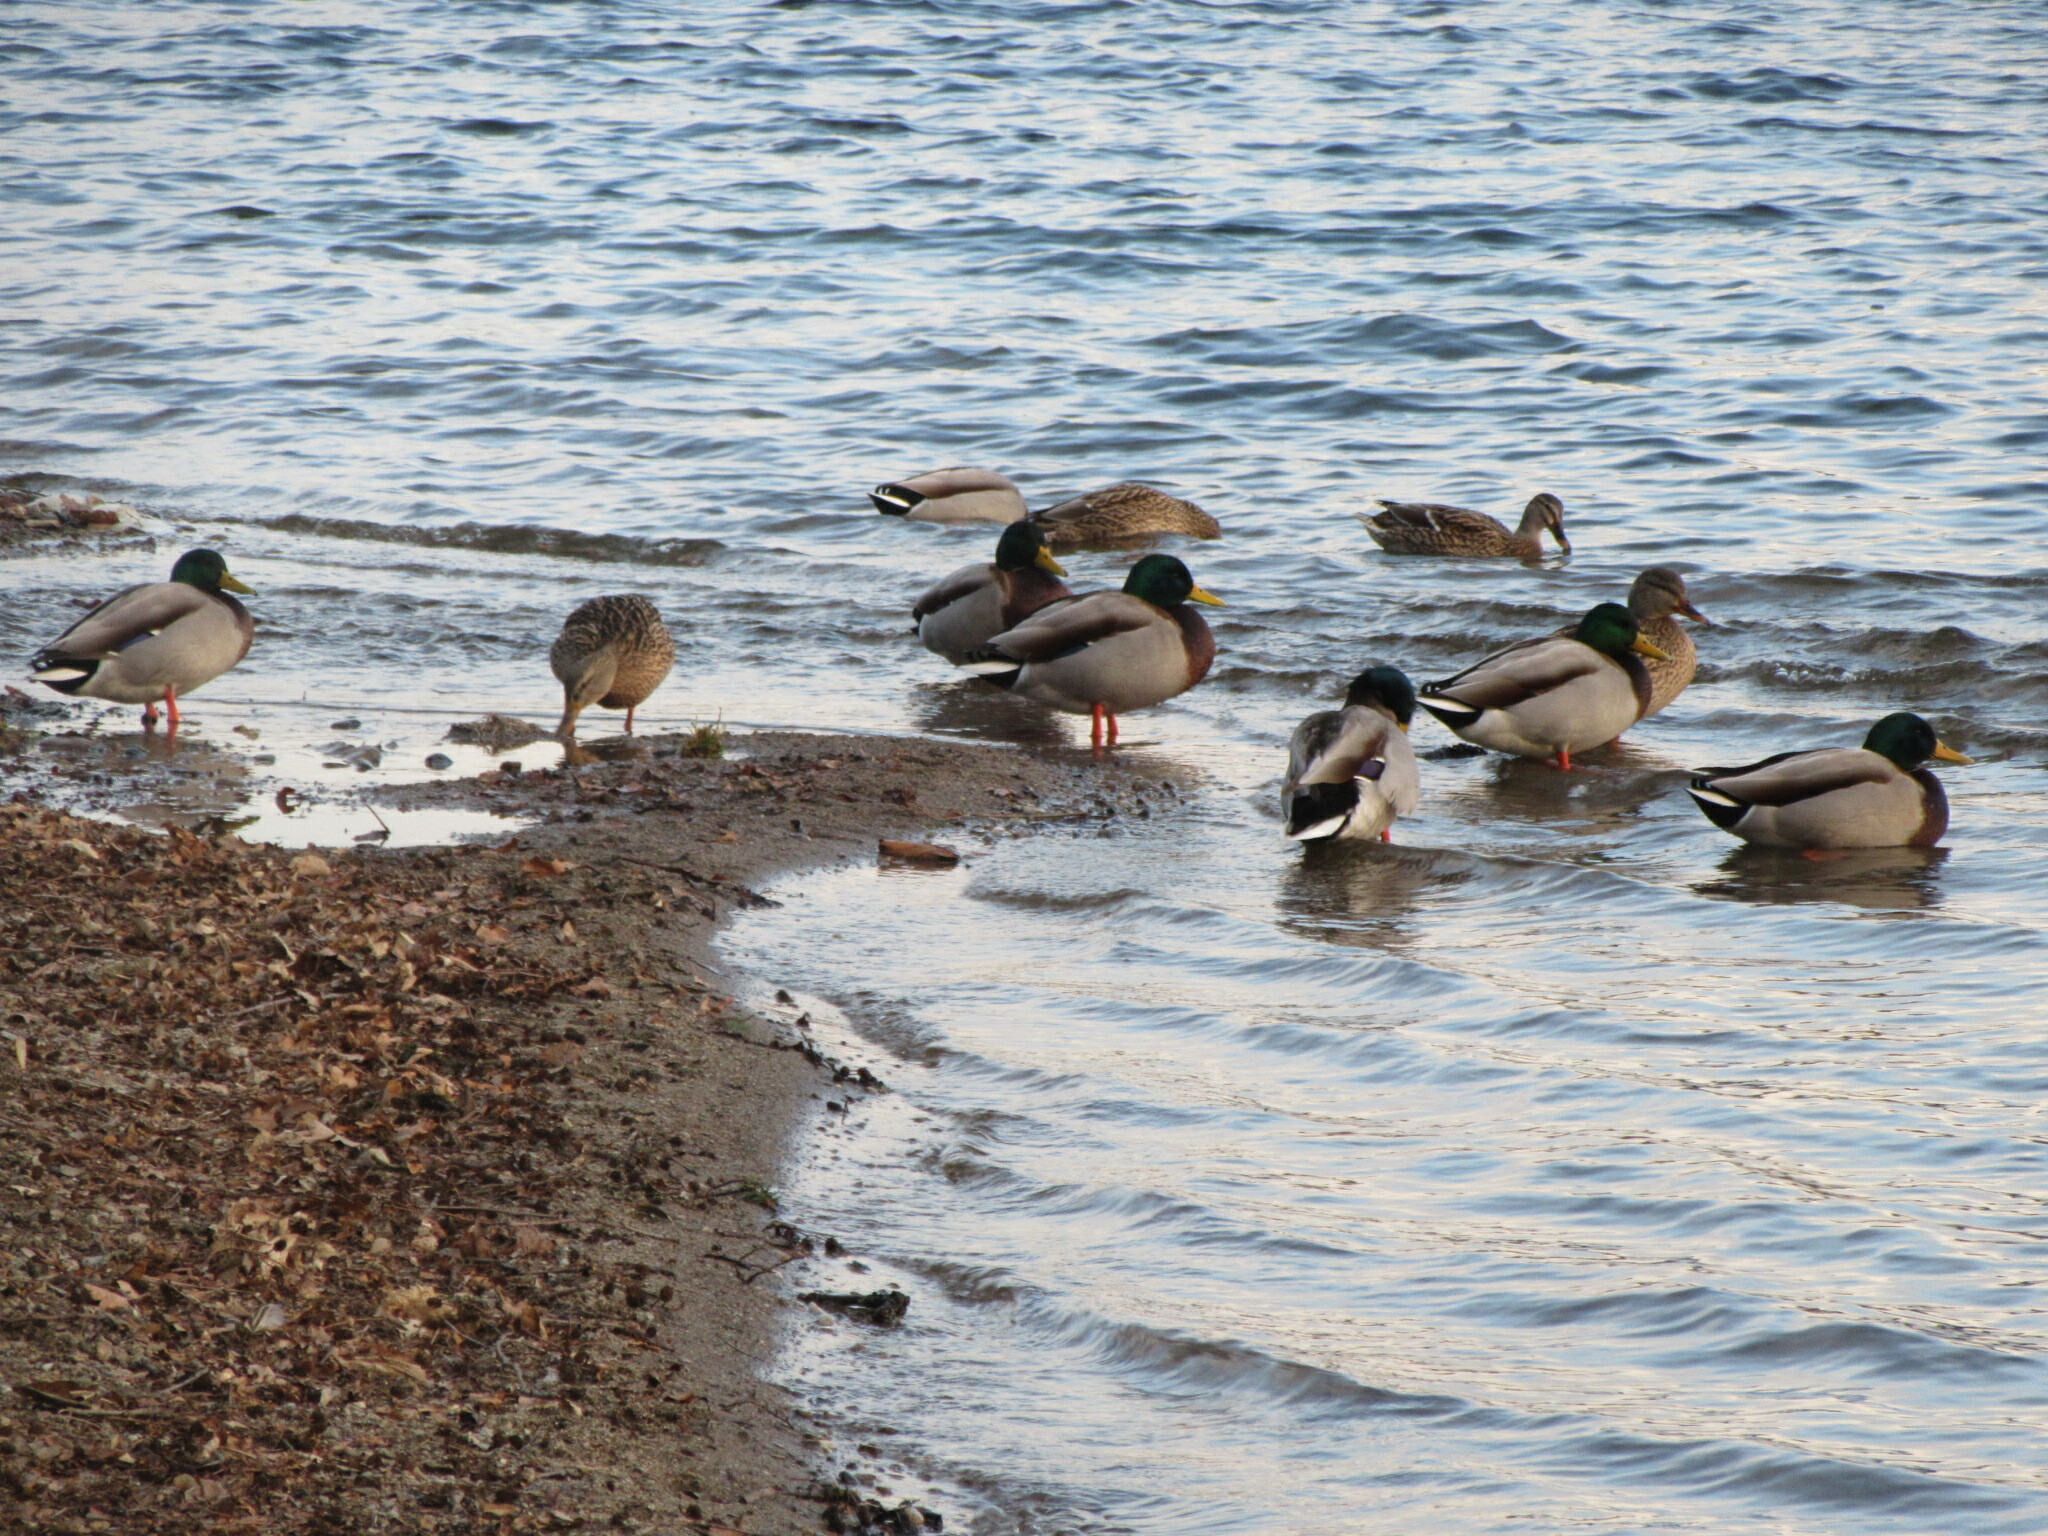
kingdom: Animalia
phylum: Chordata
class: Aves
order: Anseriformes
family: Anatidae
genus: Anas
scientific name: Anas platyrhynchos
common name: Mallard
